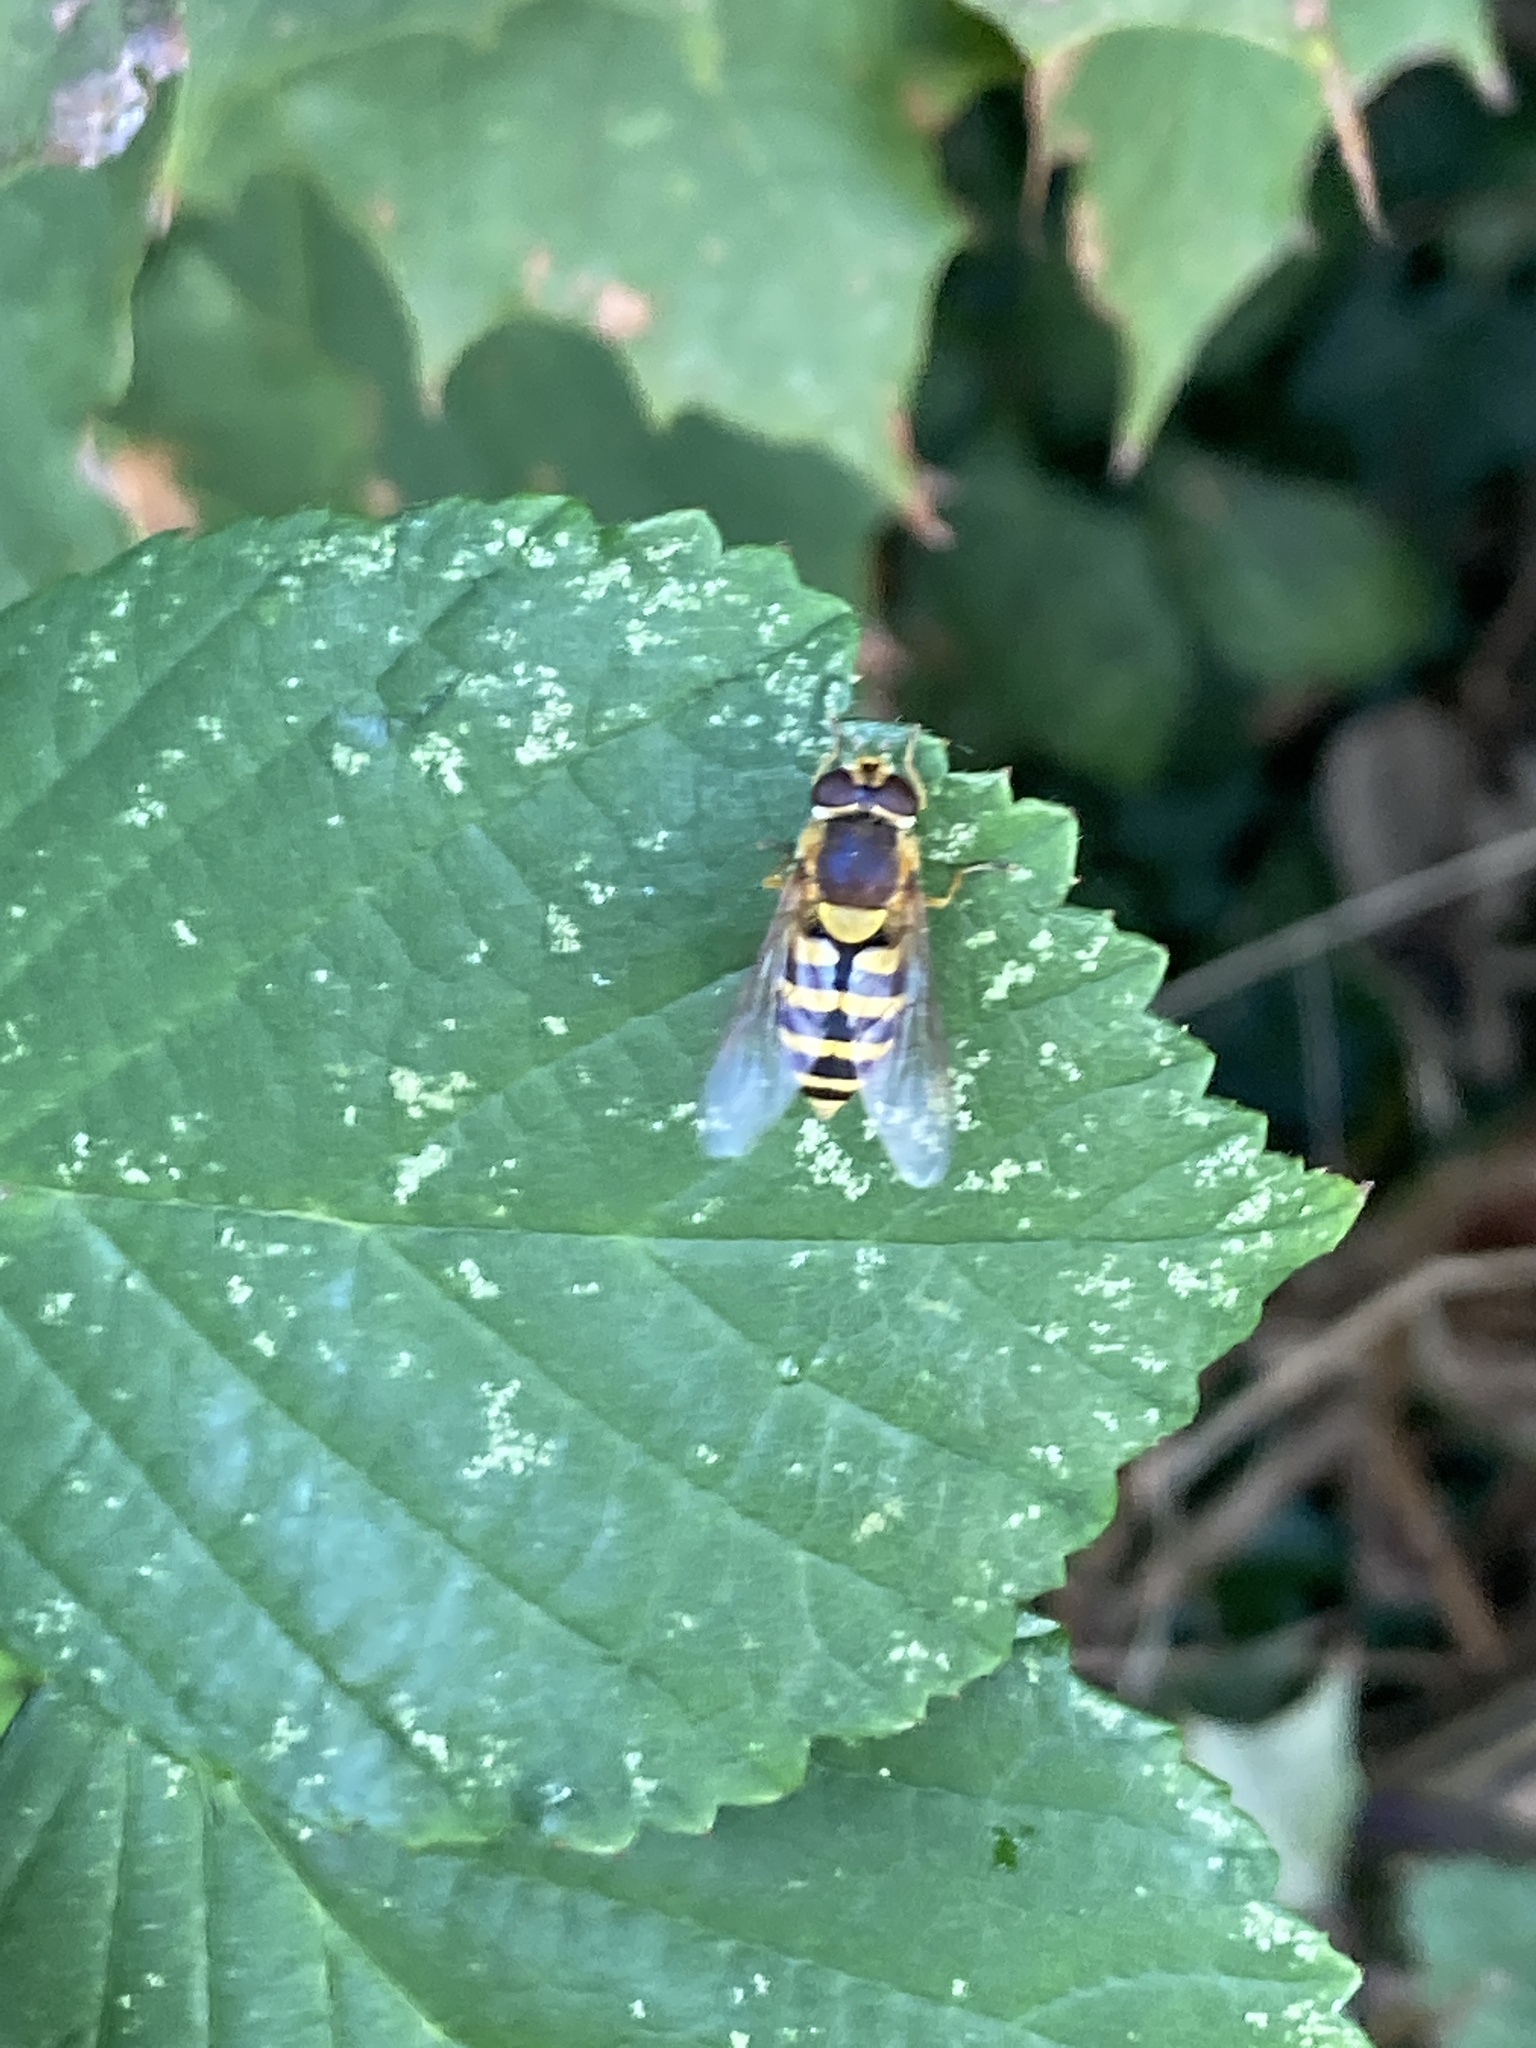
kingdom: Animalia
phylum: Arthropoda
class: Insecta
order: Diptera
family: Syrphidae
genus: Syrphus
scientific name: Syrphus
